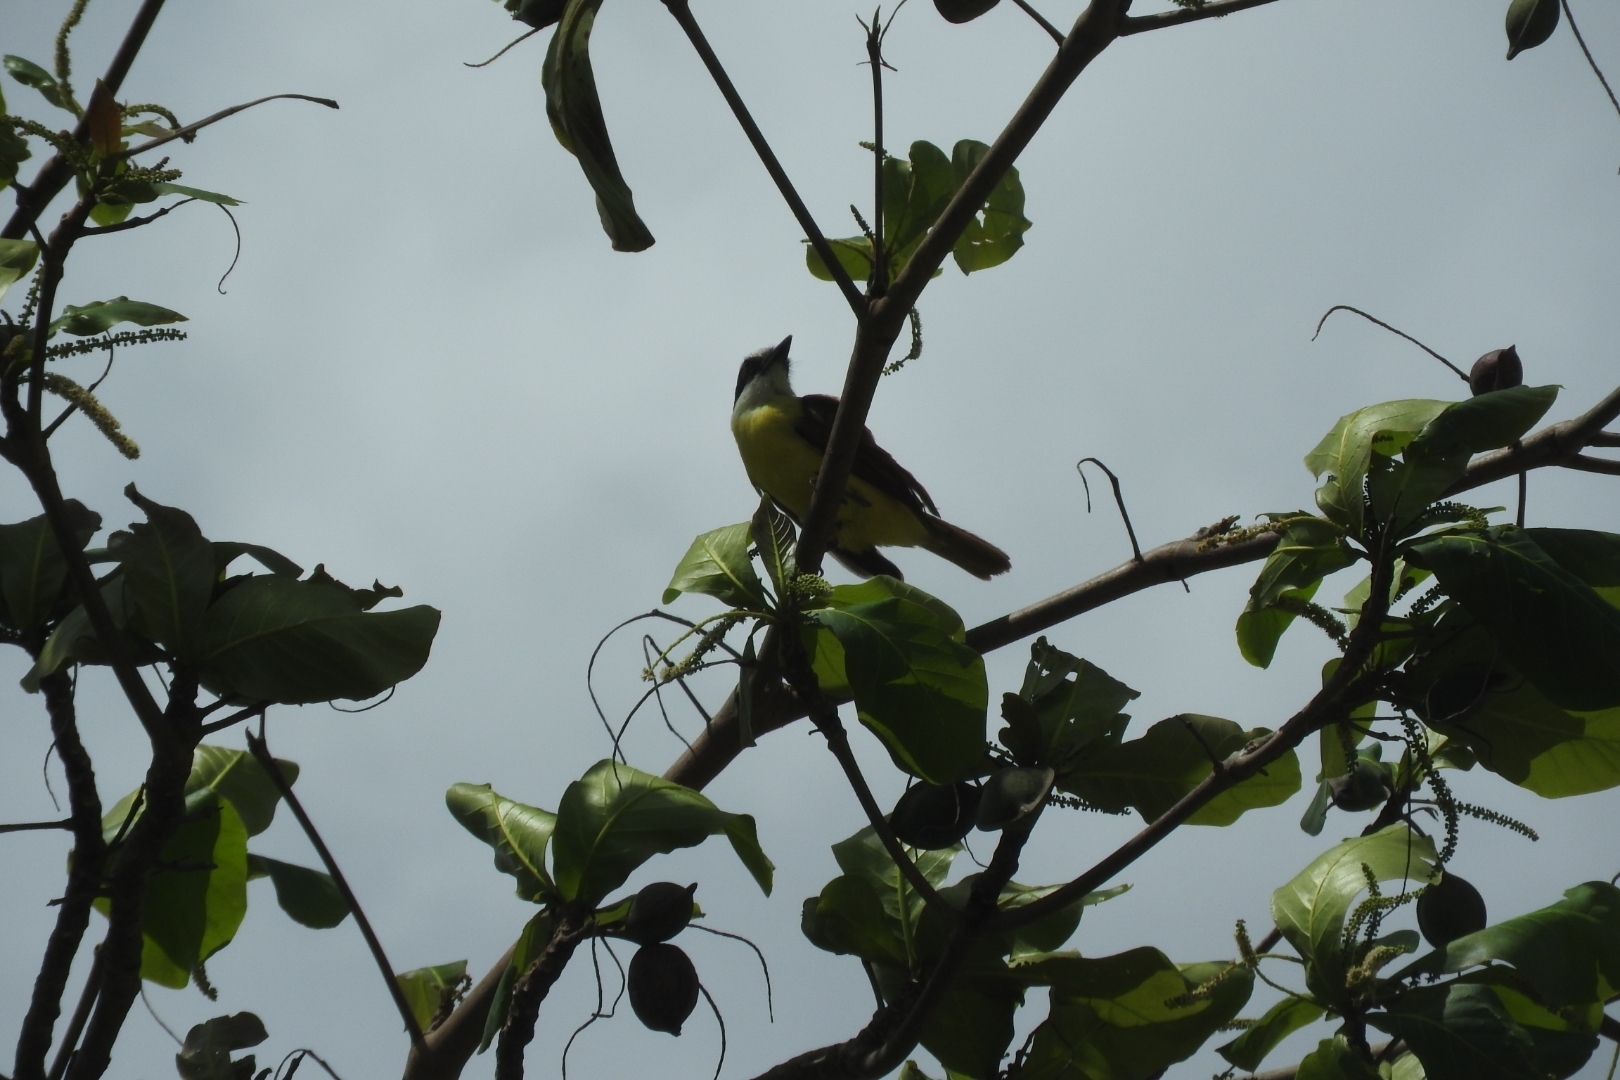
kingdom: Animalia
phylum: Chordata
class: Aves
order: Passeriformes
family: Tyrannidae
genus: Pitangus
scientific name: Pitangus sulphuratus
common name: Great kiskadee
